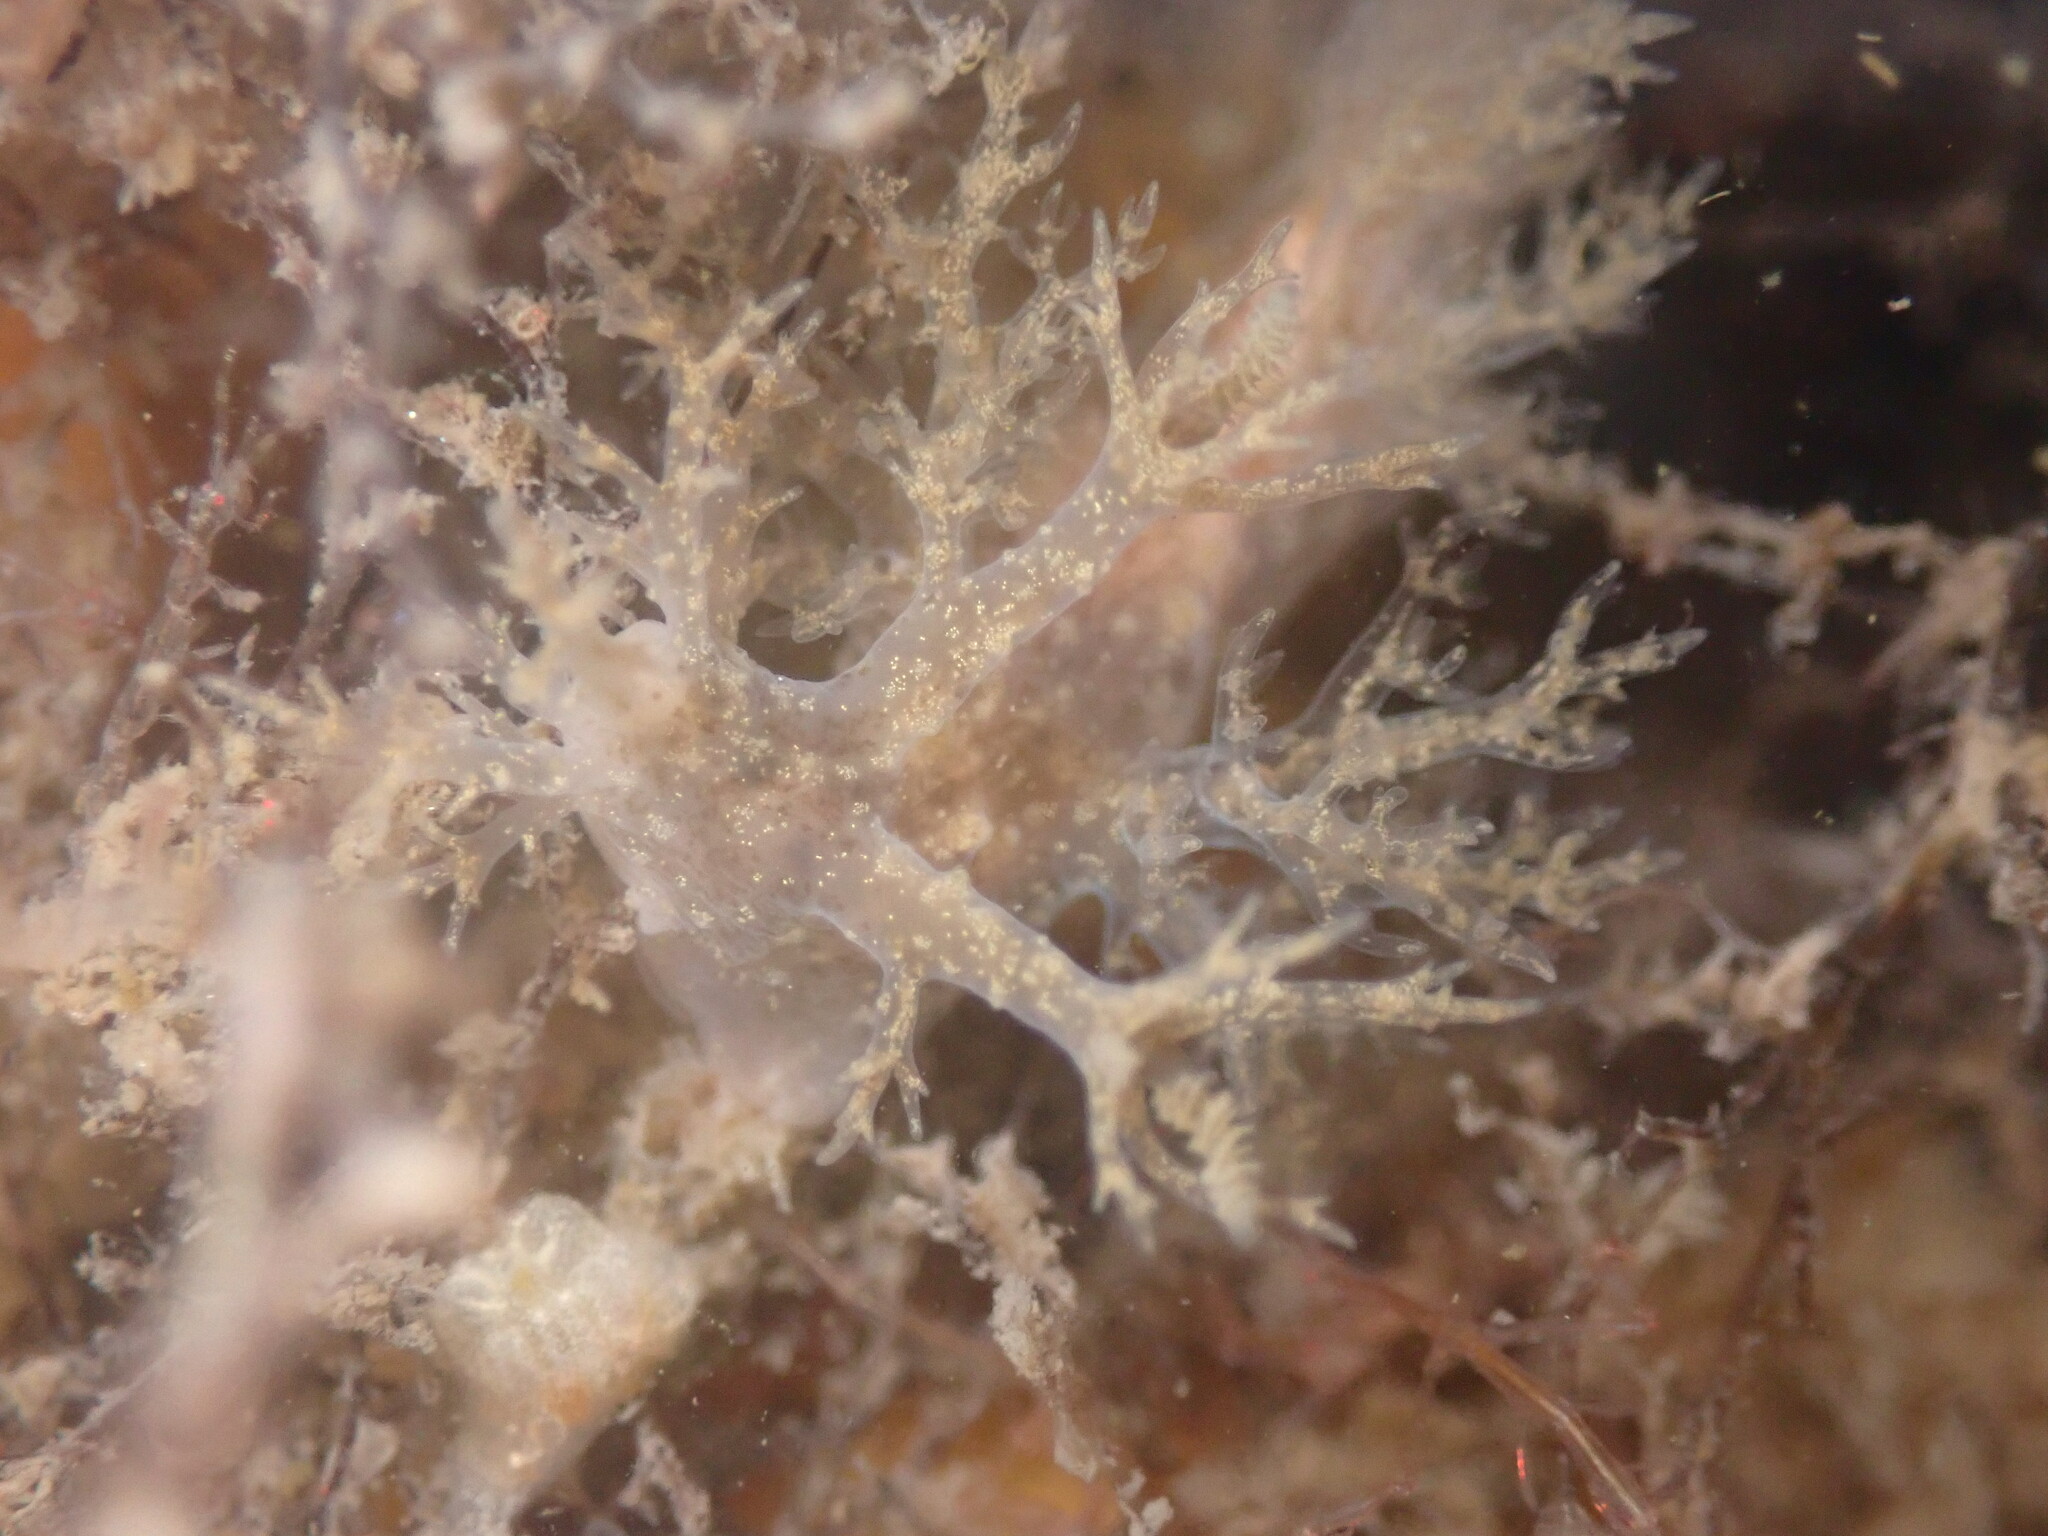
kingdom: Animalia
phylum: Mollusca
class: Gastropoda
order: Nudibranchia
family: Dendronotidae
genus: Dendronotus
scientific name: Dendronotus venustus
